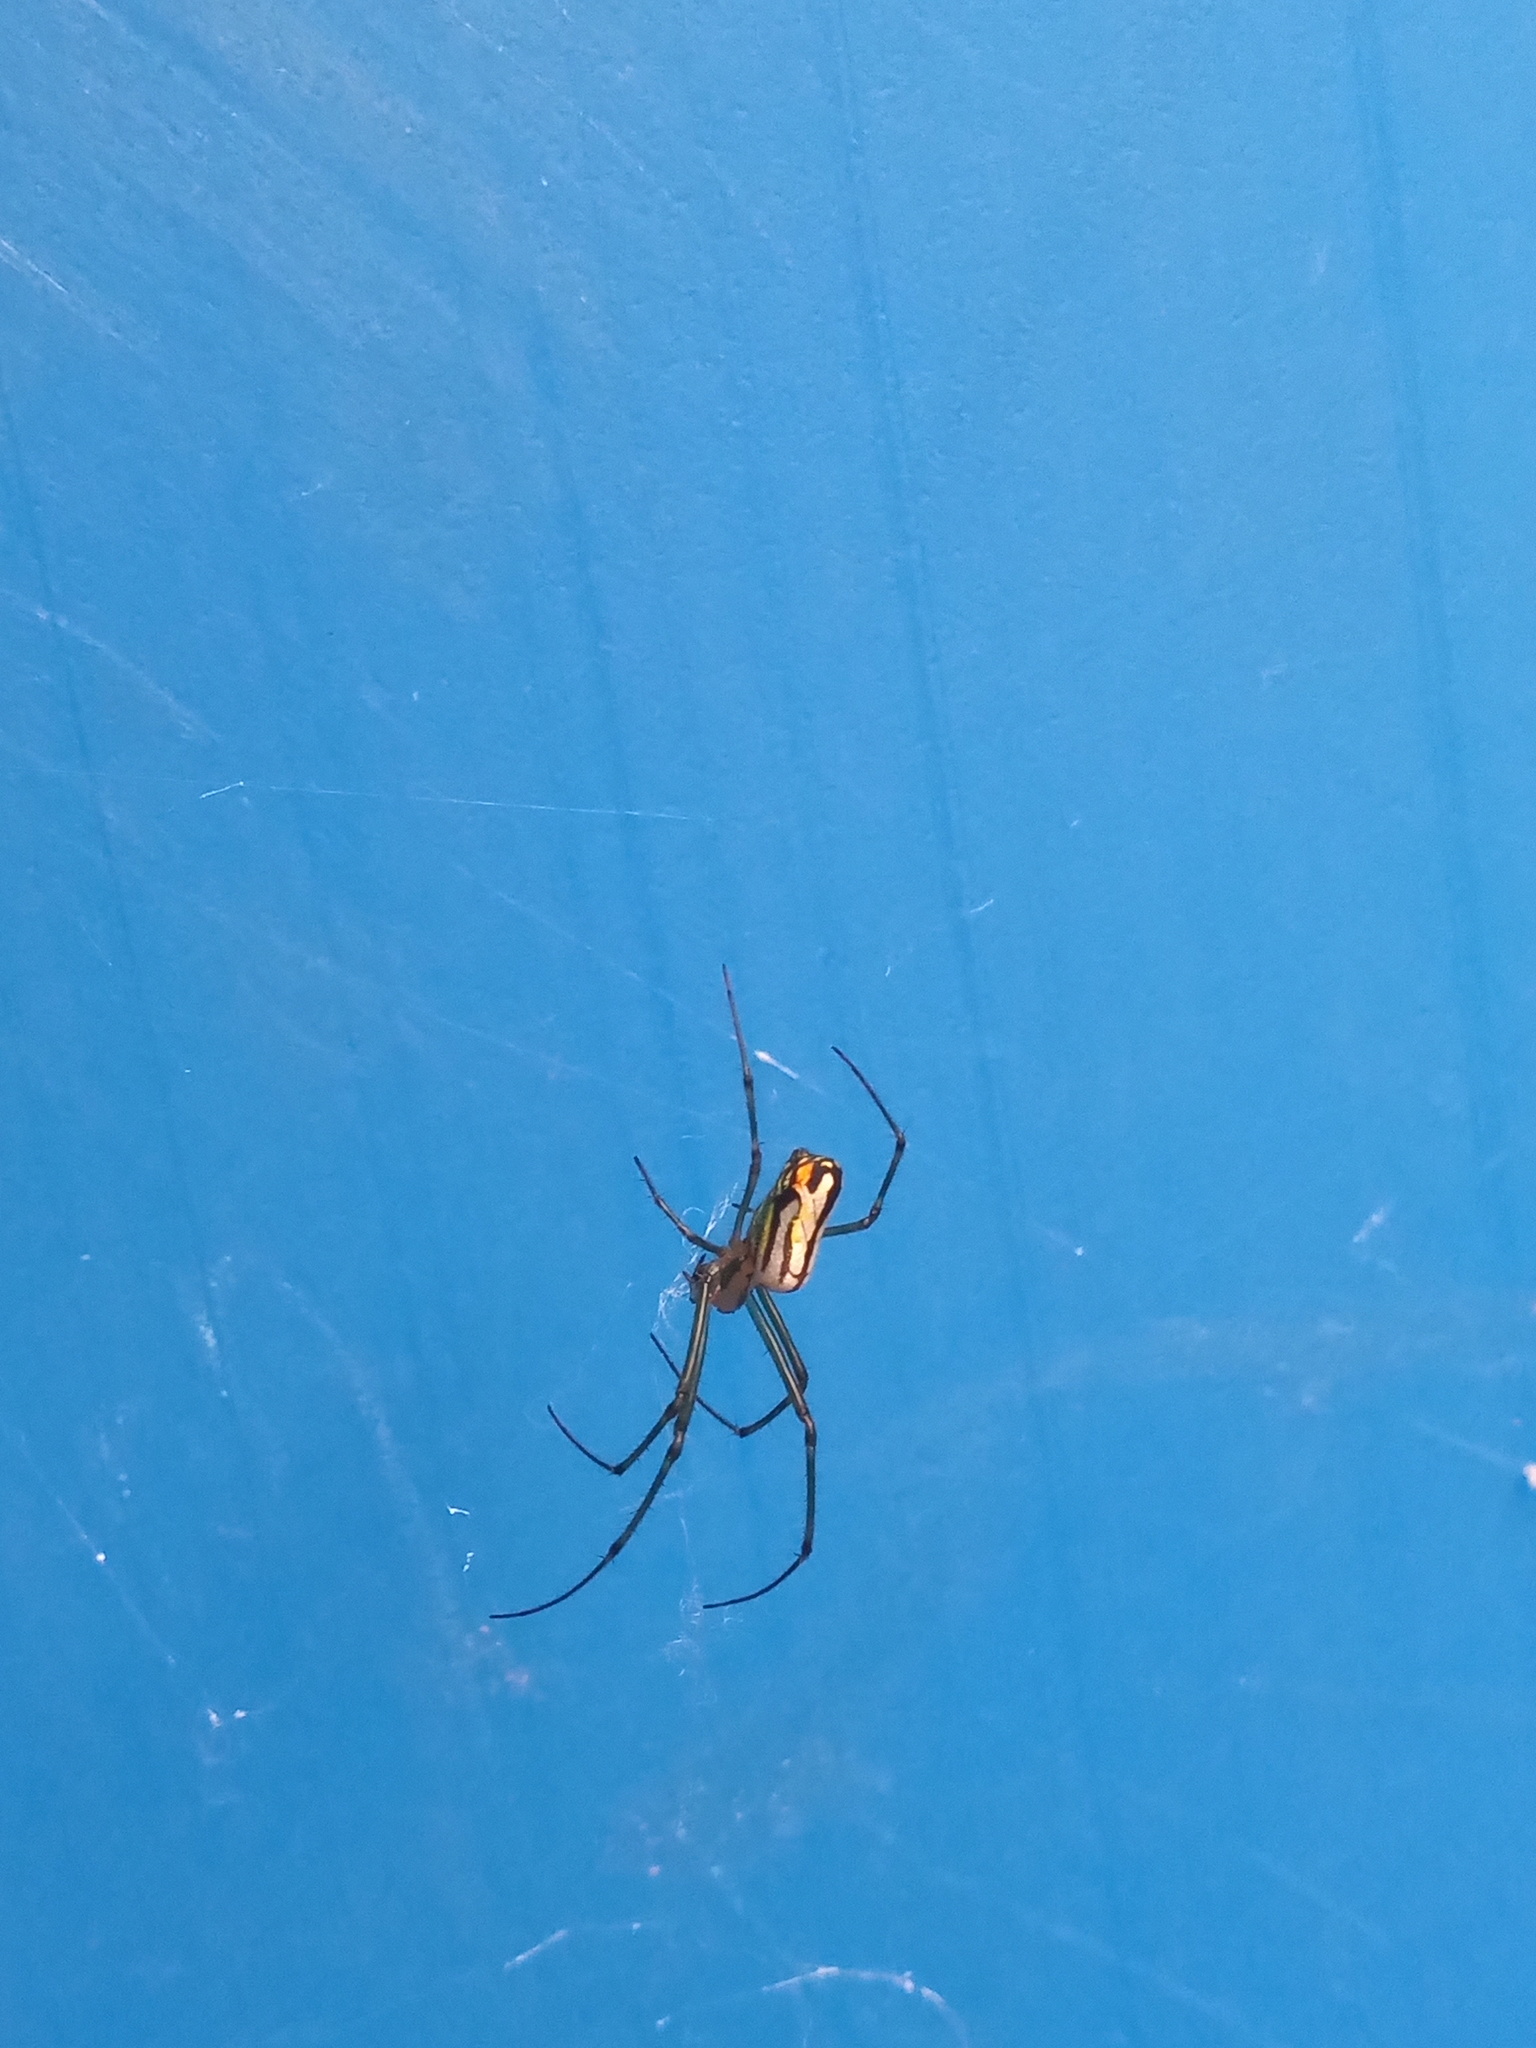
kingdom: Animalia
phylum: Arthropoda
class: Arachnida
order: Araneae
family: Tetragnathidae
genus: Leucauge
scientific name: Leucauge argyrobapta
